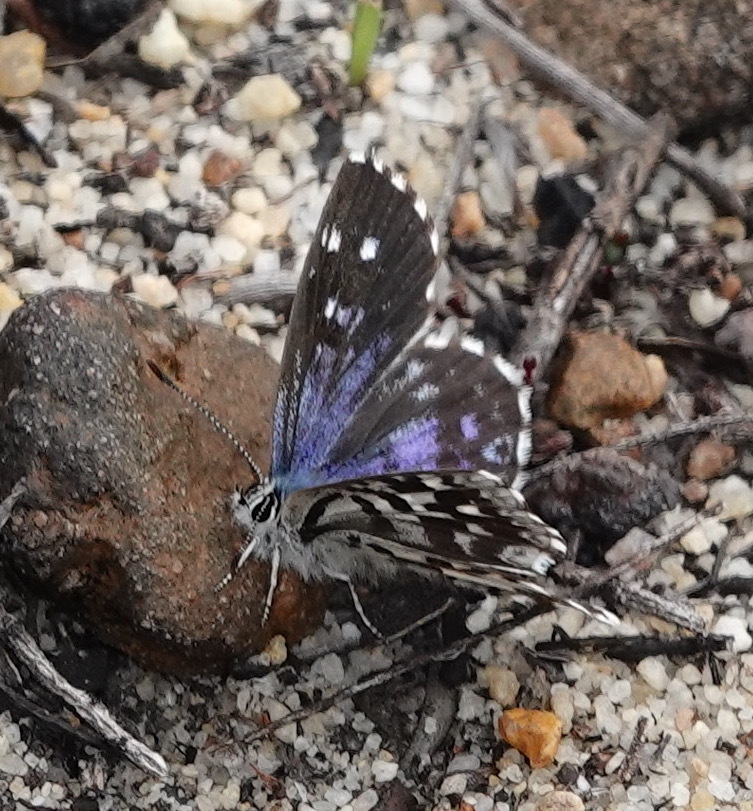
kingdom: Animalia
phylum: Arthropoda
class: Insecta
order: Lepidoptera
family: Lycaenidae
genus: Tarucus
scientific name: Tarucus thespis
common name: Vivid dotted blue
